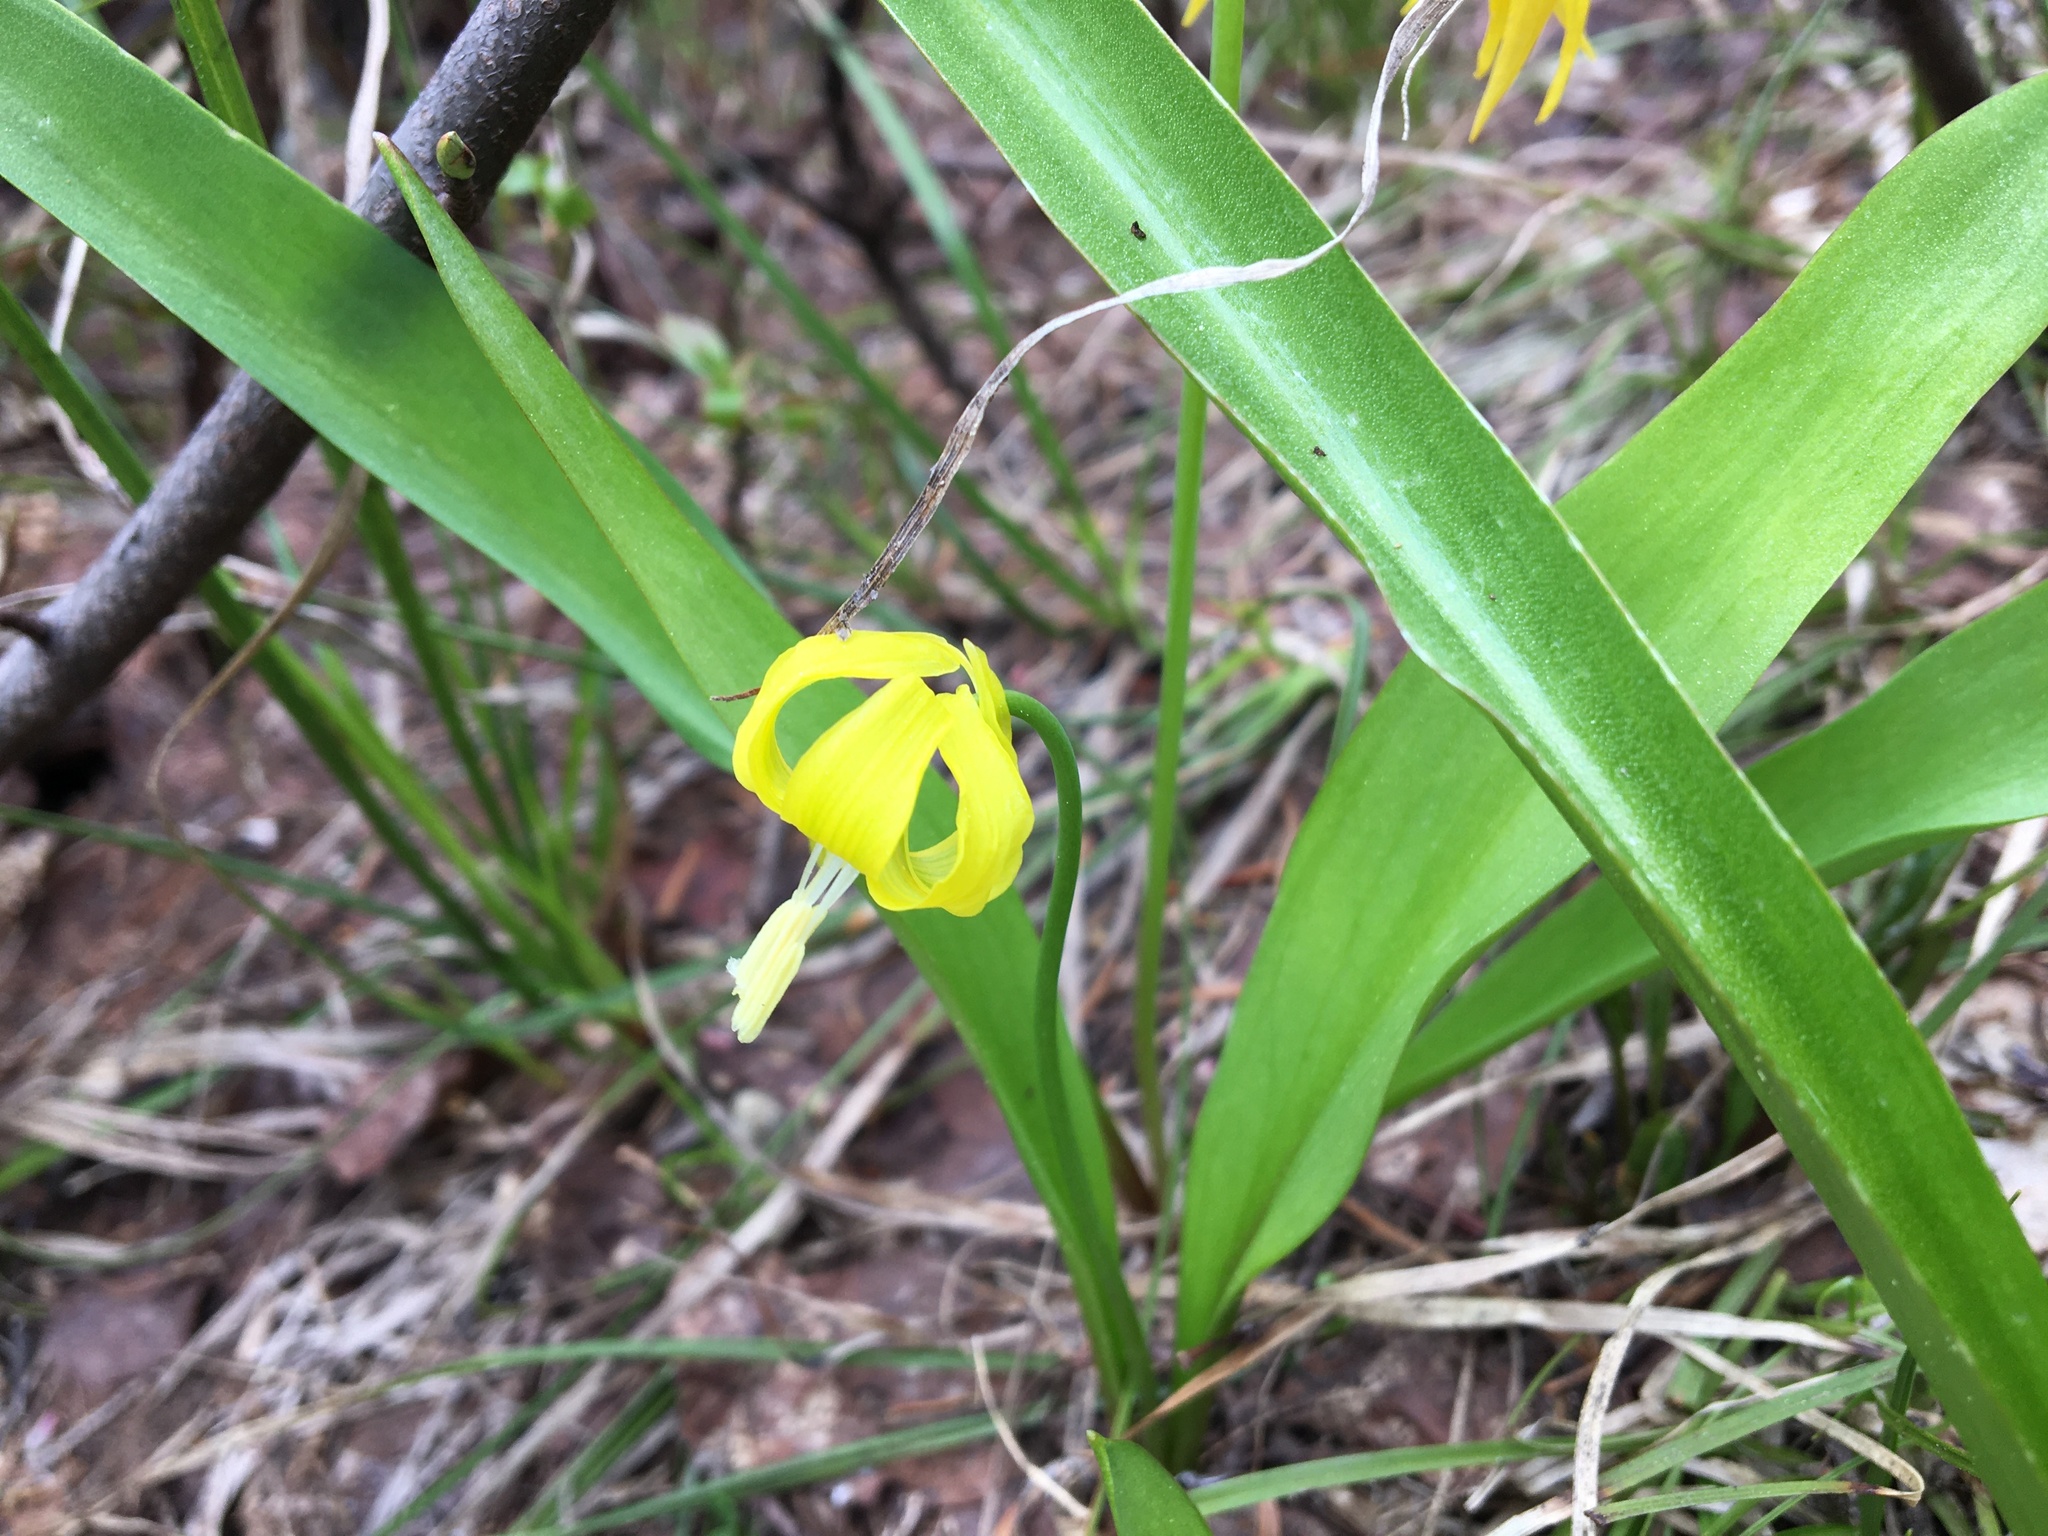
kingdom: Plantae
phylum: Tracheophyta
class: Liliopsida
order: Liliales
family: Liliaceae
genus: Erythronium
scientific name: Erythronium grandiflorum
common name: Avalanche-lily
